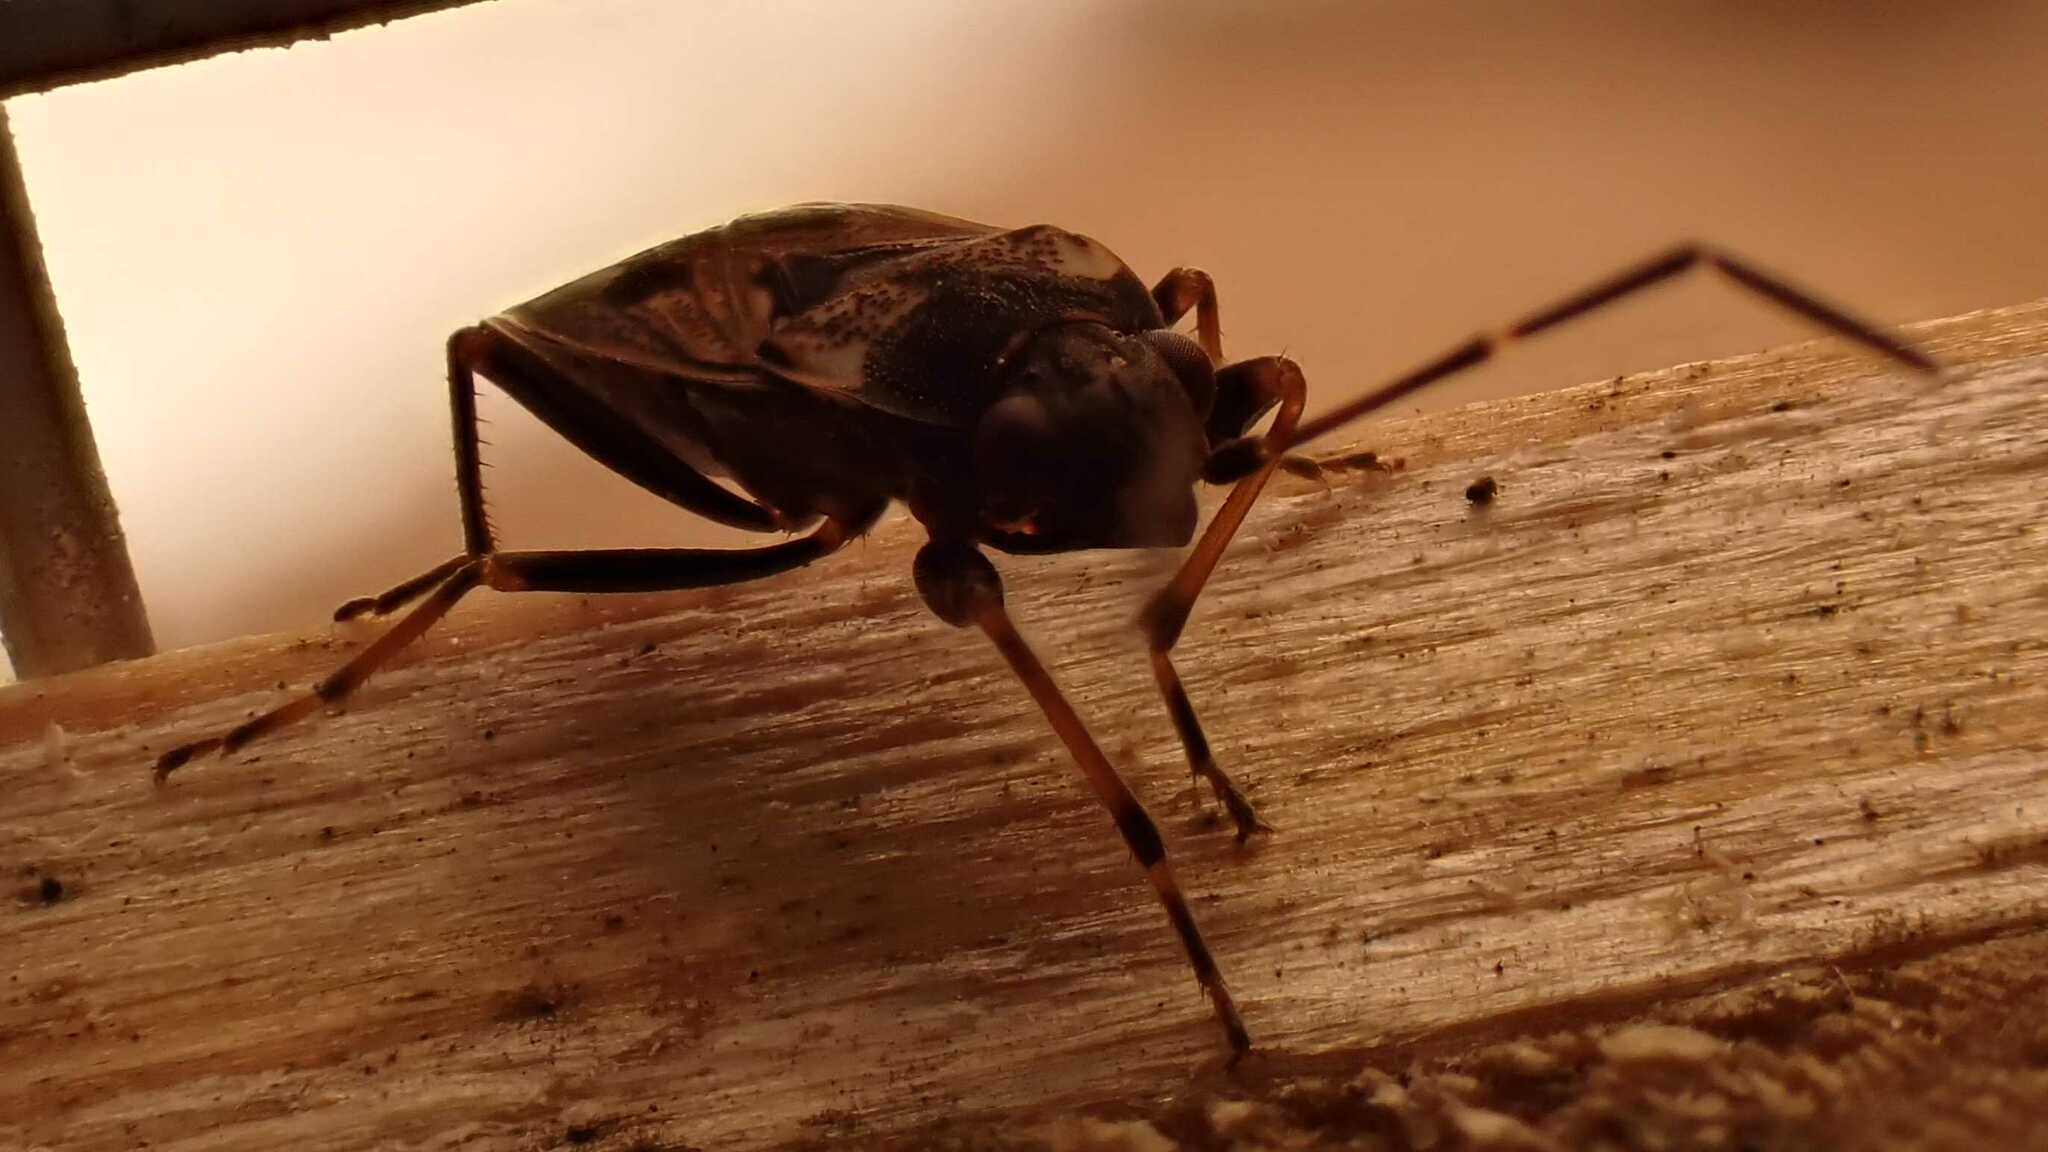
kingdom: Animalia
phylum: Arthropoda
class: Insecta
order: Hemiptera
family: Rhyparochromidae
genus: Rhyparochromus
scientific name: Rhyparochromus vulgaris
